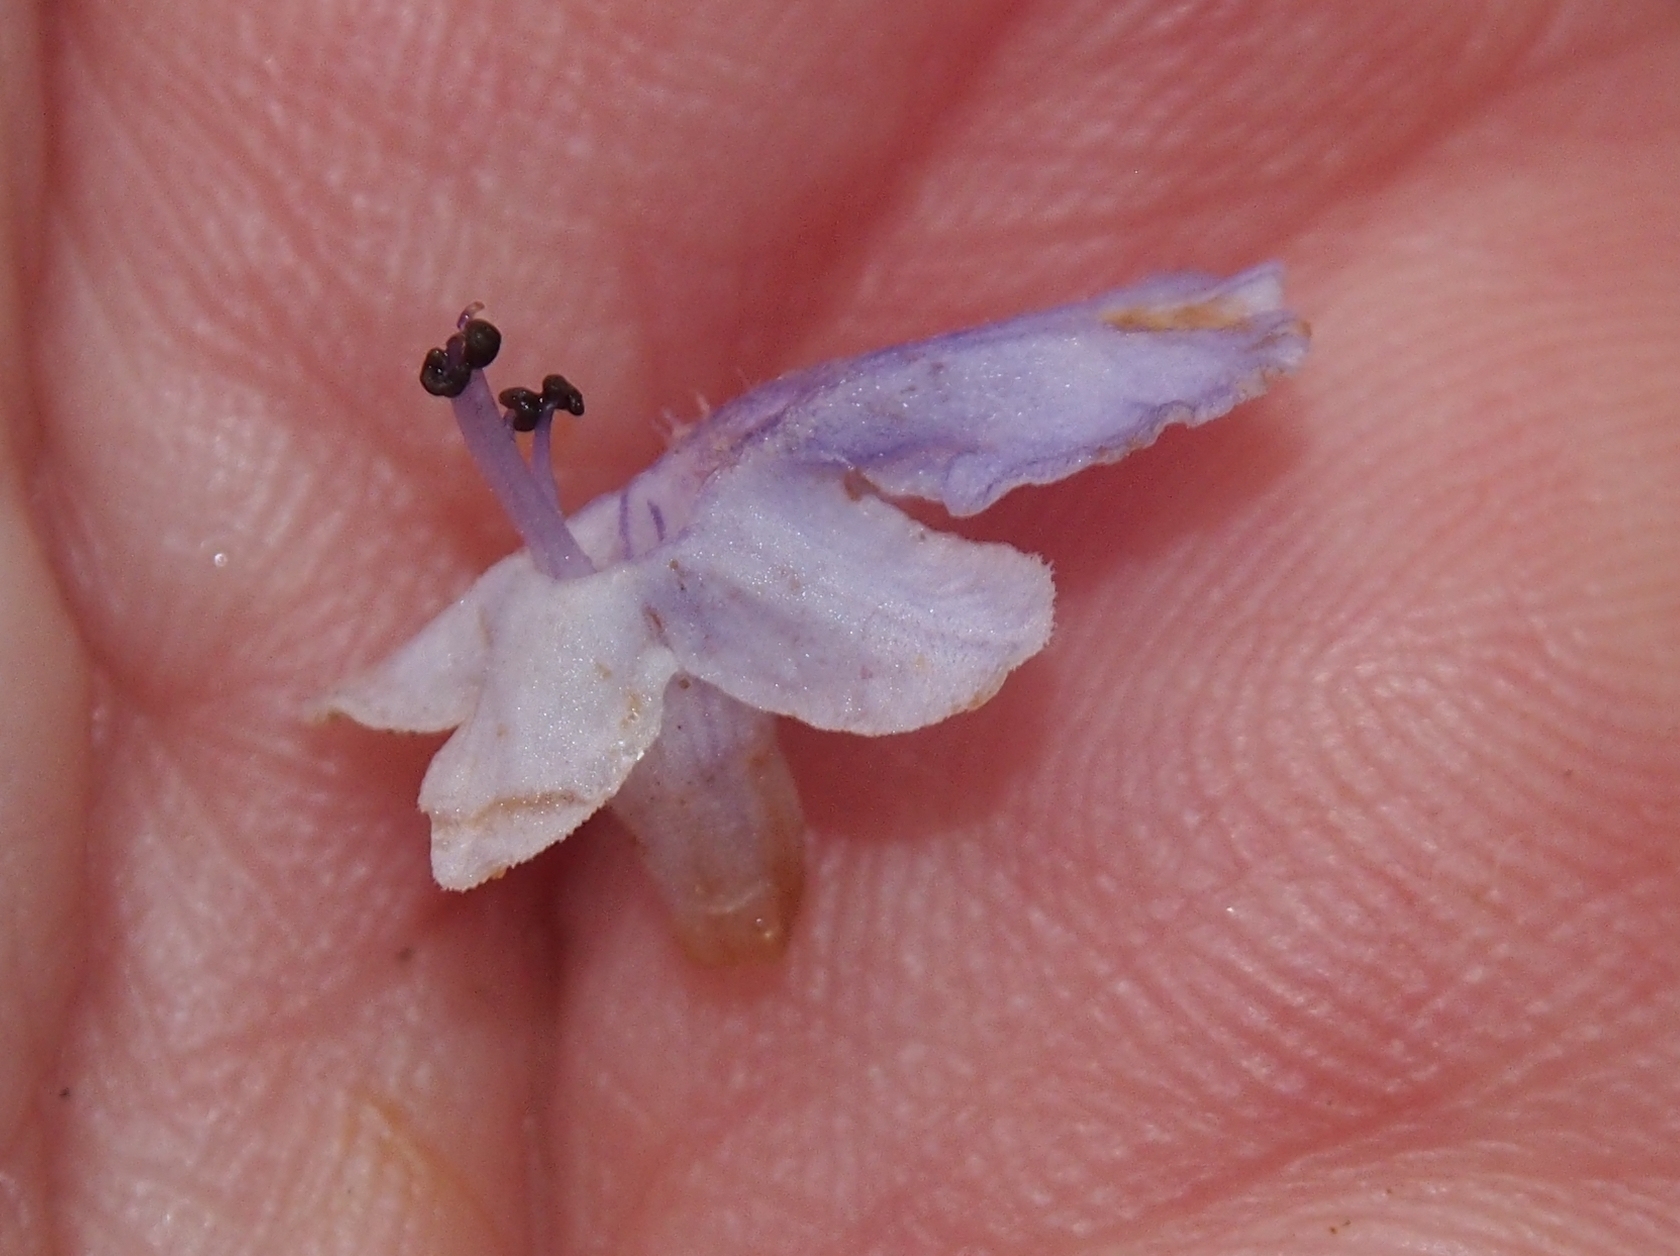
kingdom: Plantae
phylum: Tracheophyta
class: Magnoliopsida
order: Lamiales
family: Lamiaceae
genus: Vitex
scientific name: Vitex cooperi
